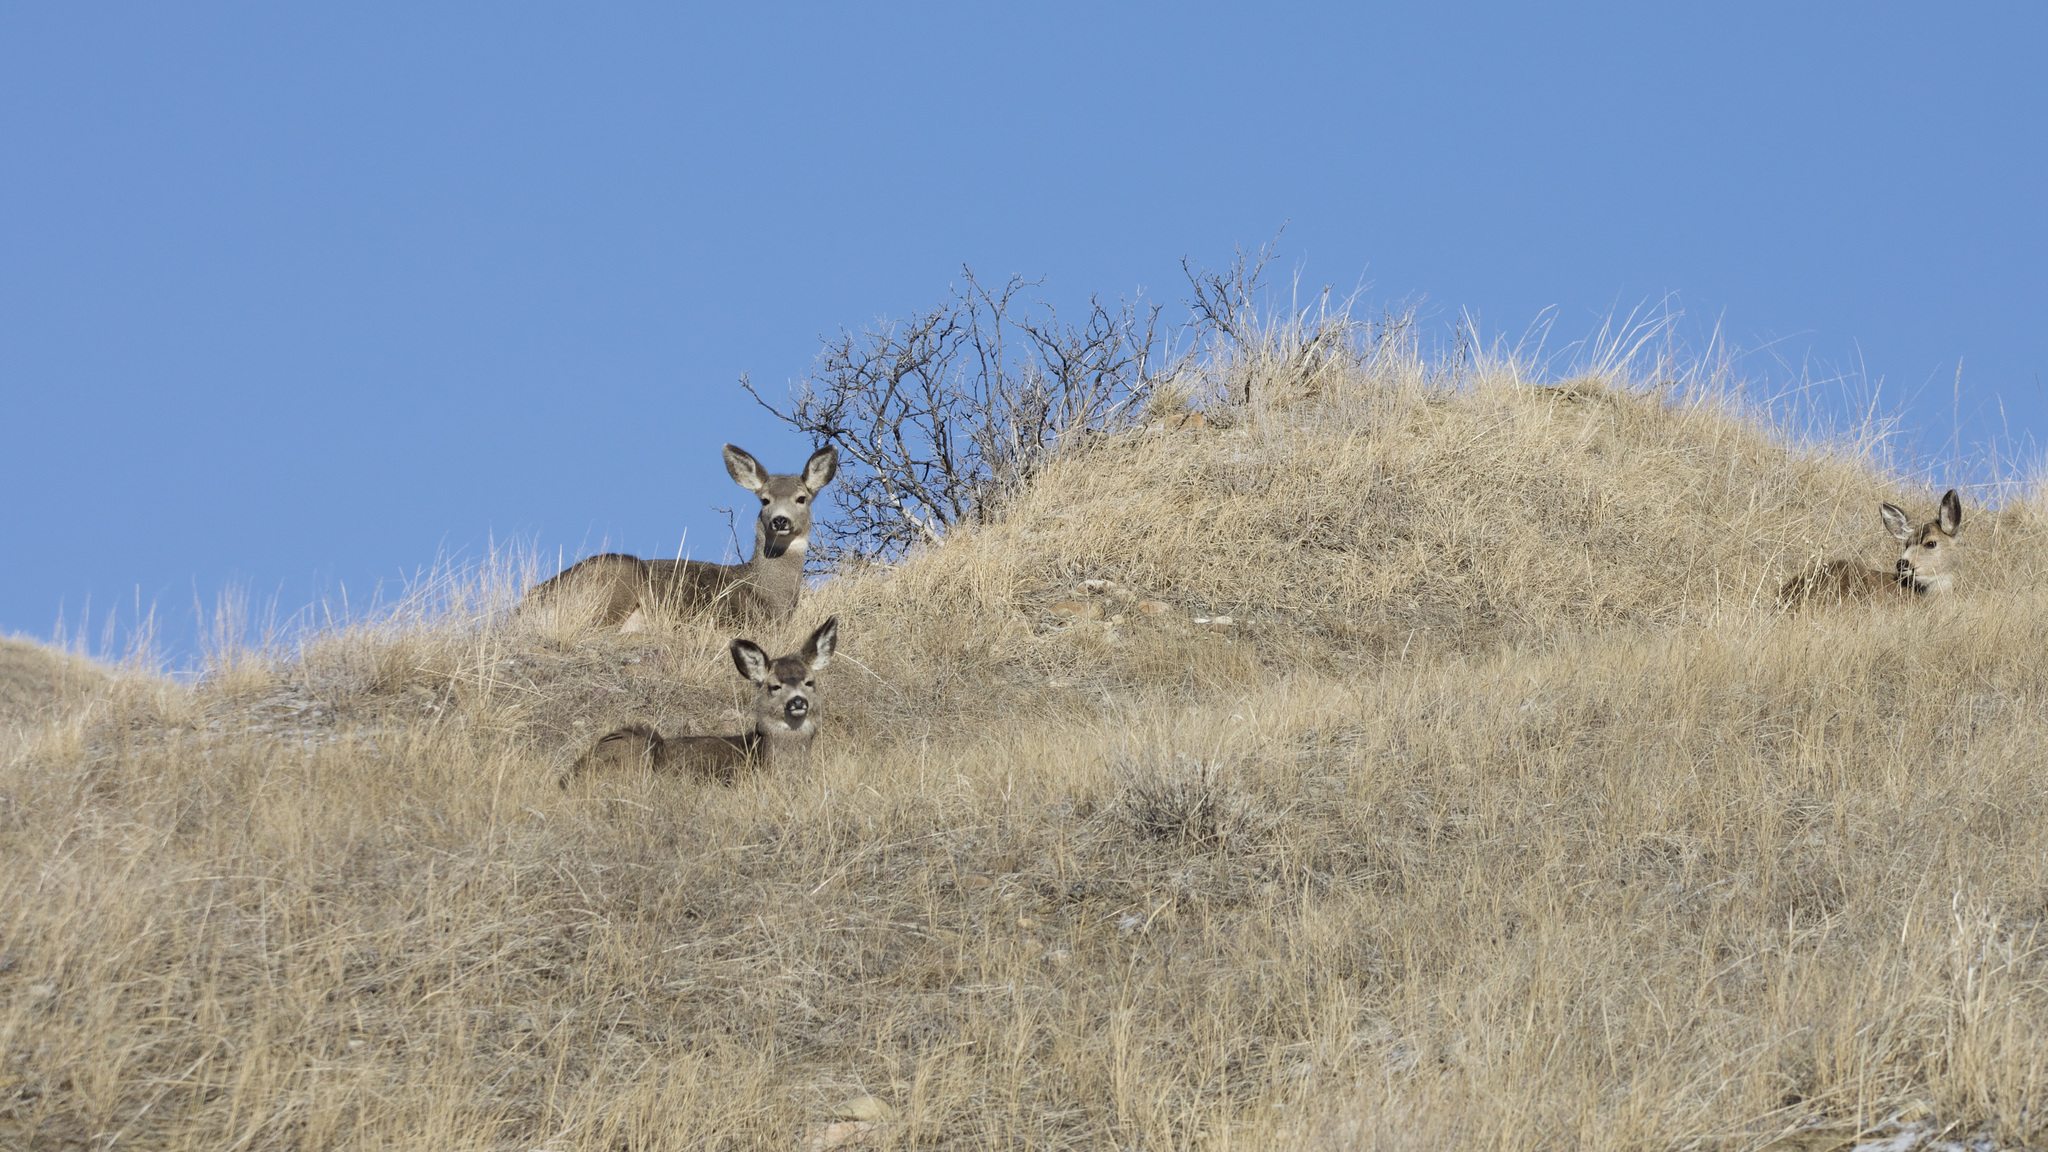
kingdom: Animalia
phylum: Chordata
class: Mammalia
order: Artiodactyla
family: Cervidae
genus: Odocoileus
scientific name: Odocoileus hemionus
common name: Mule deer
